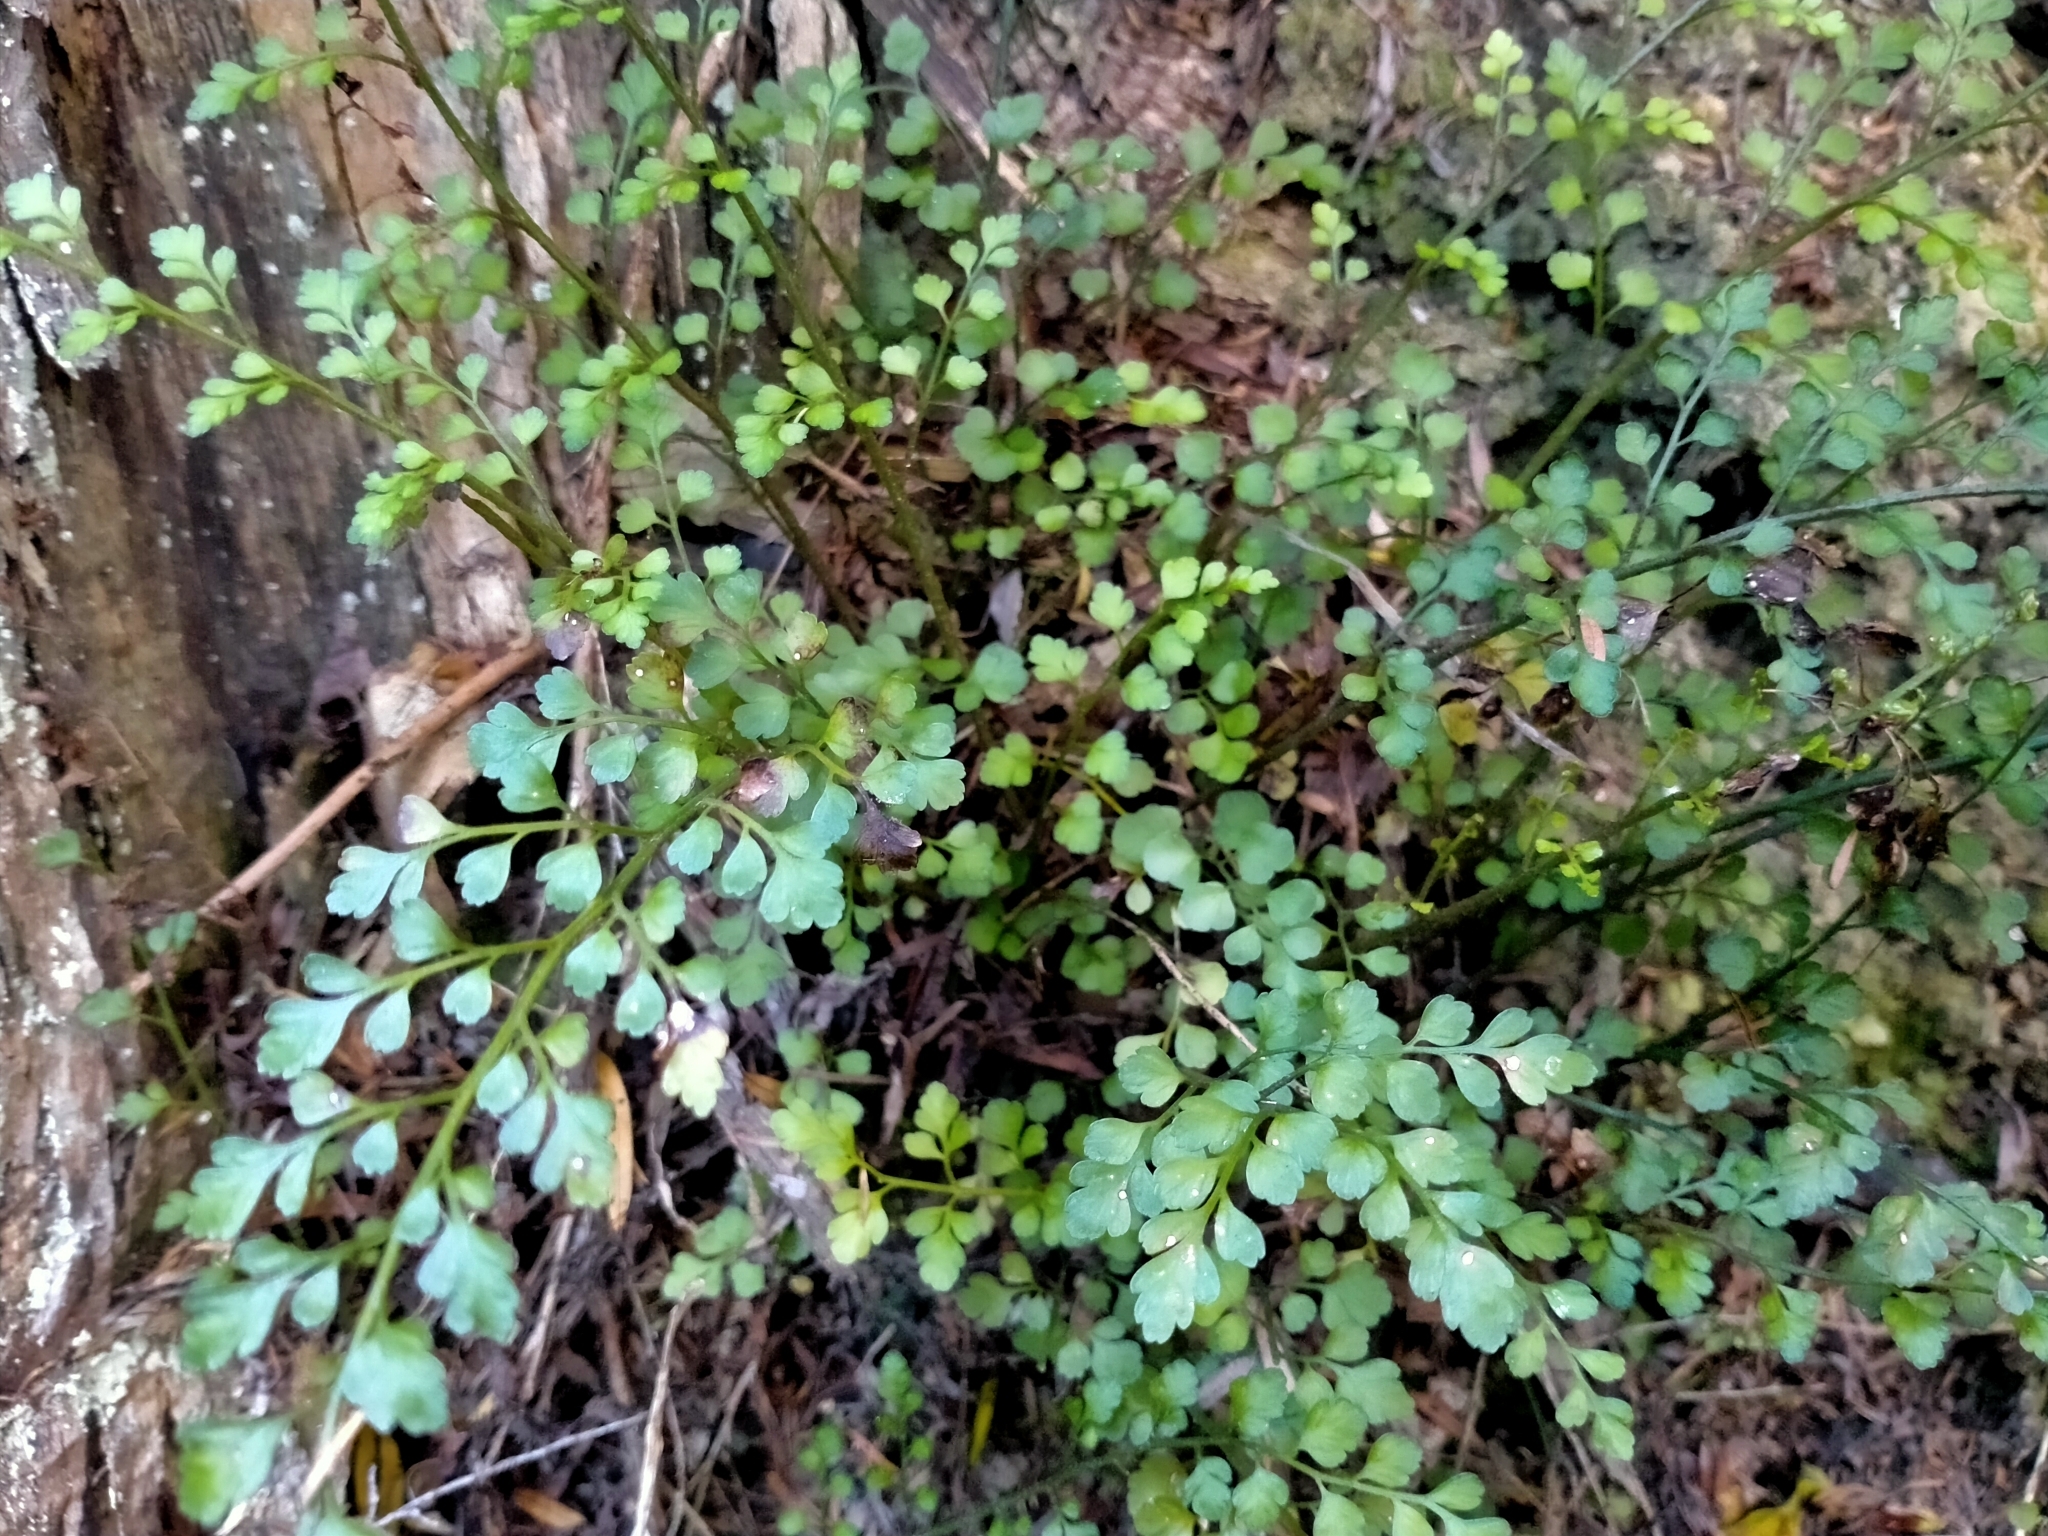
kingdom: Plantae
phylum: Tracheophyta
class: Polypodiopsida
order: Polypodiales
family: Aspleniaceae
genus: Asplenium
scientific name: Asplenium hookerianum
